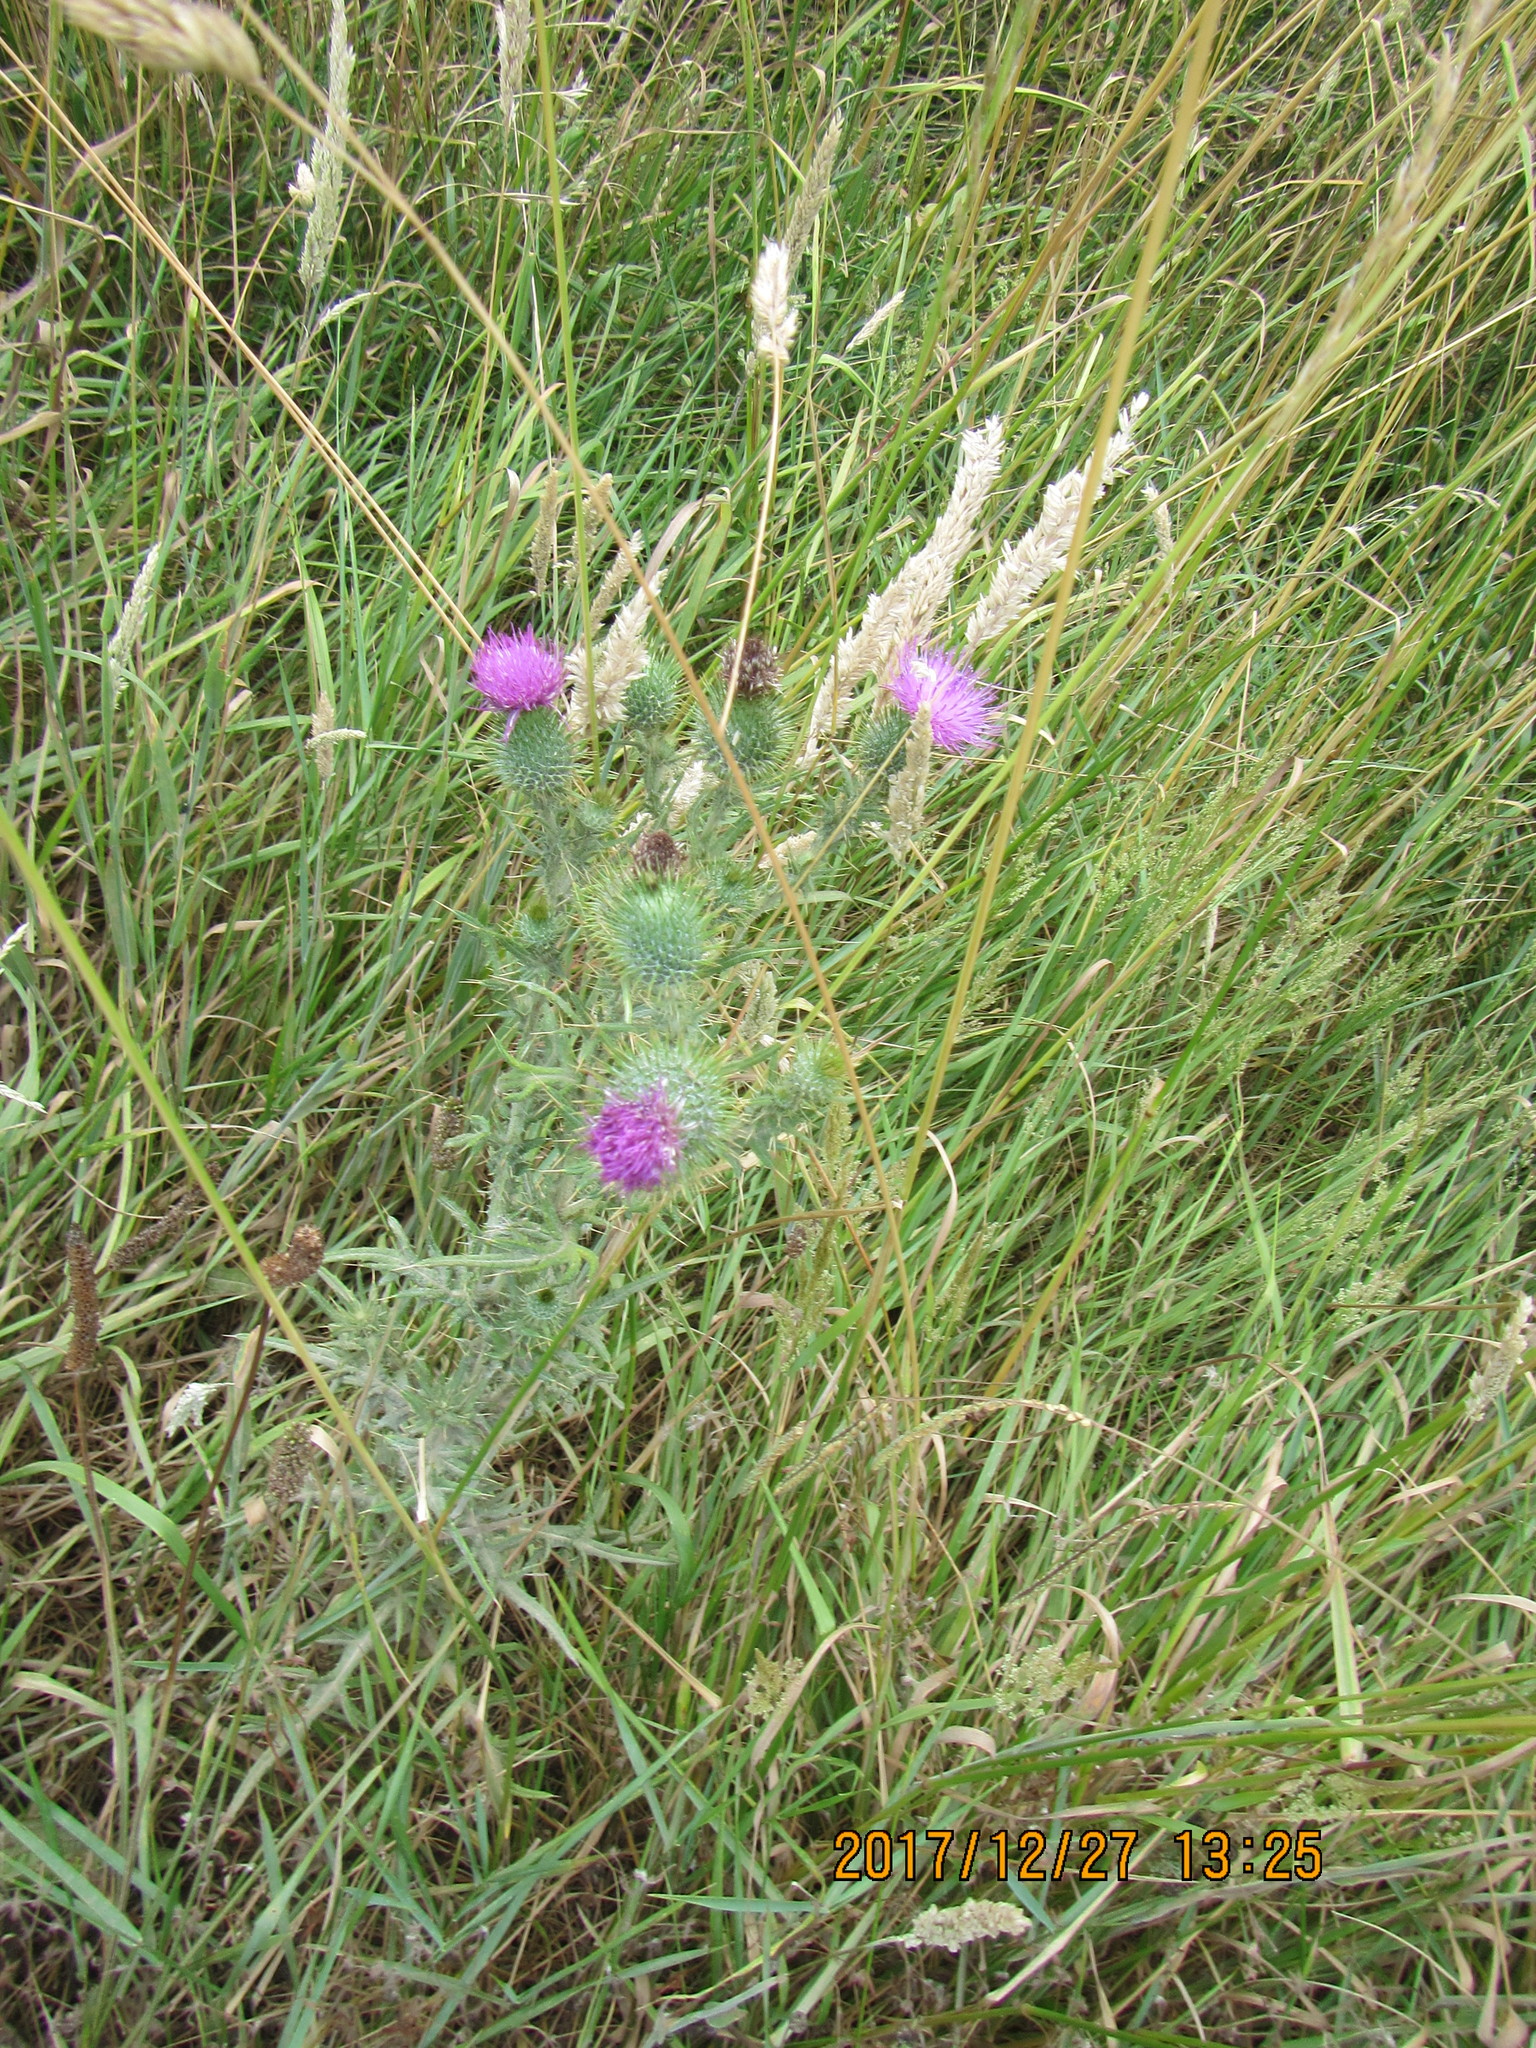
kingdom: Plantae
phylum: Tracheophyta
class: Magnoliopsida
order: Asterales
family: Asteraceae
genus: Cirsium
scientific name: Cirsium vulgare
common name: Bull thistle
